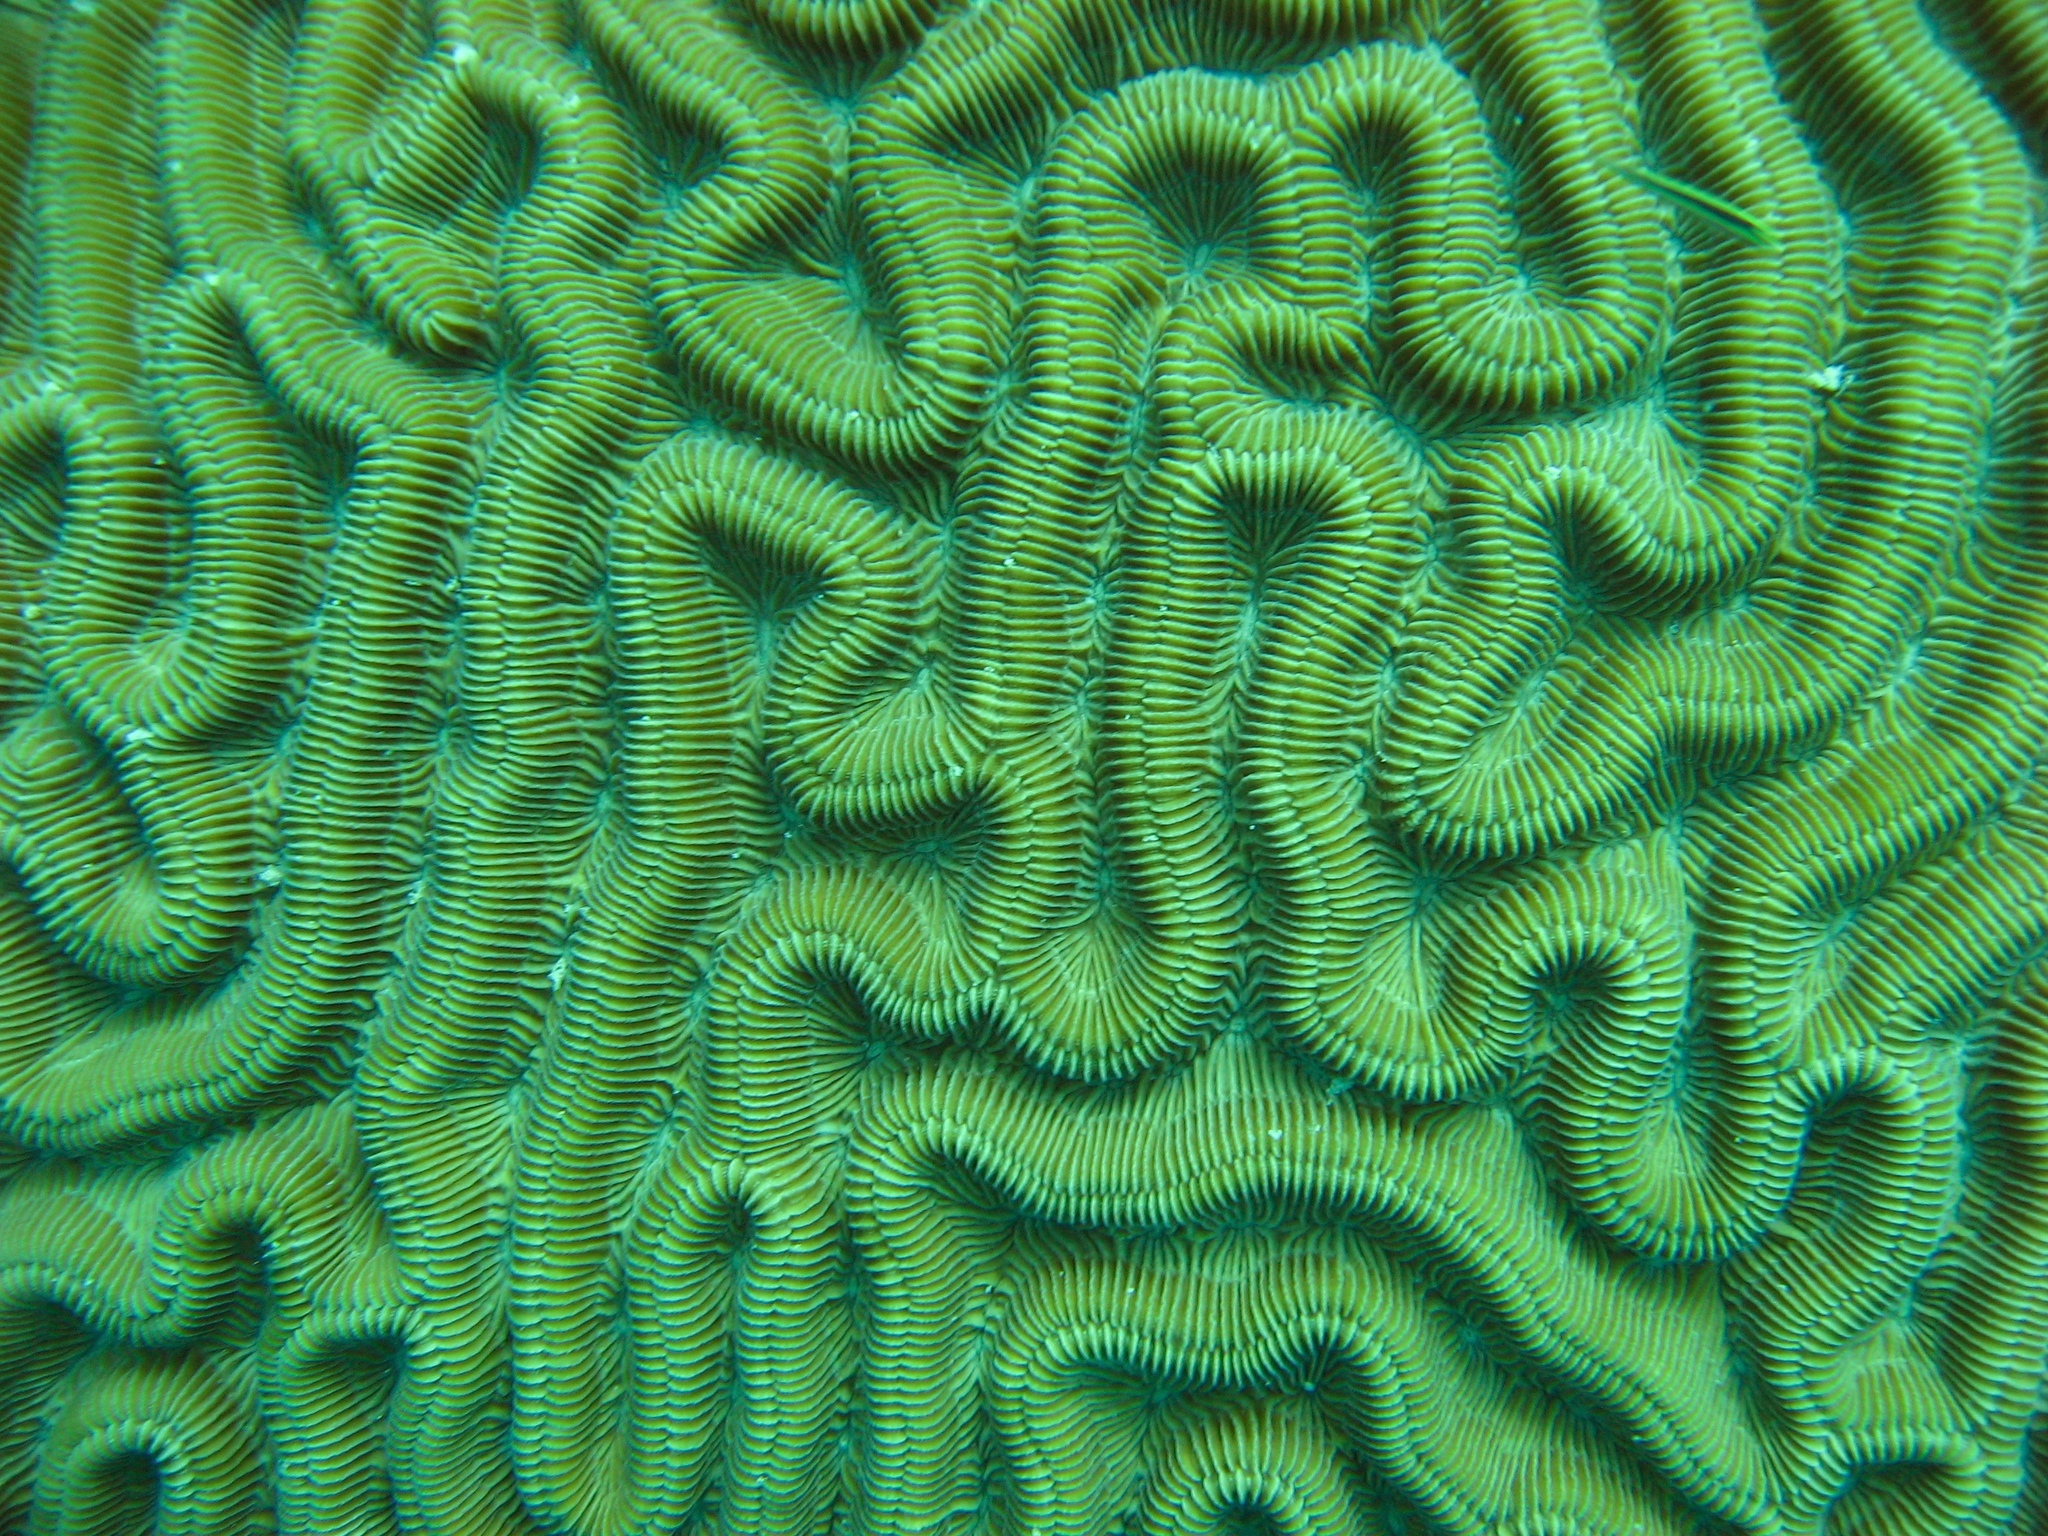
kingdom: Animalia
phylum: Cnidaria
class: Anthozoa
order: Scleractinia
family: Faviidae
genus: Colpophyllia
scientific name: Colpophyllia natans
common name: Boulder brain coral
